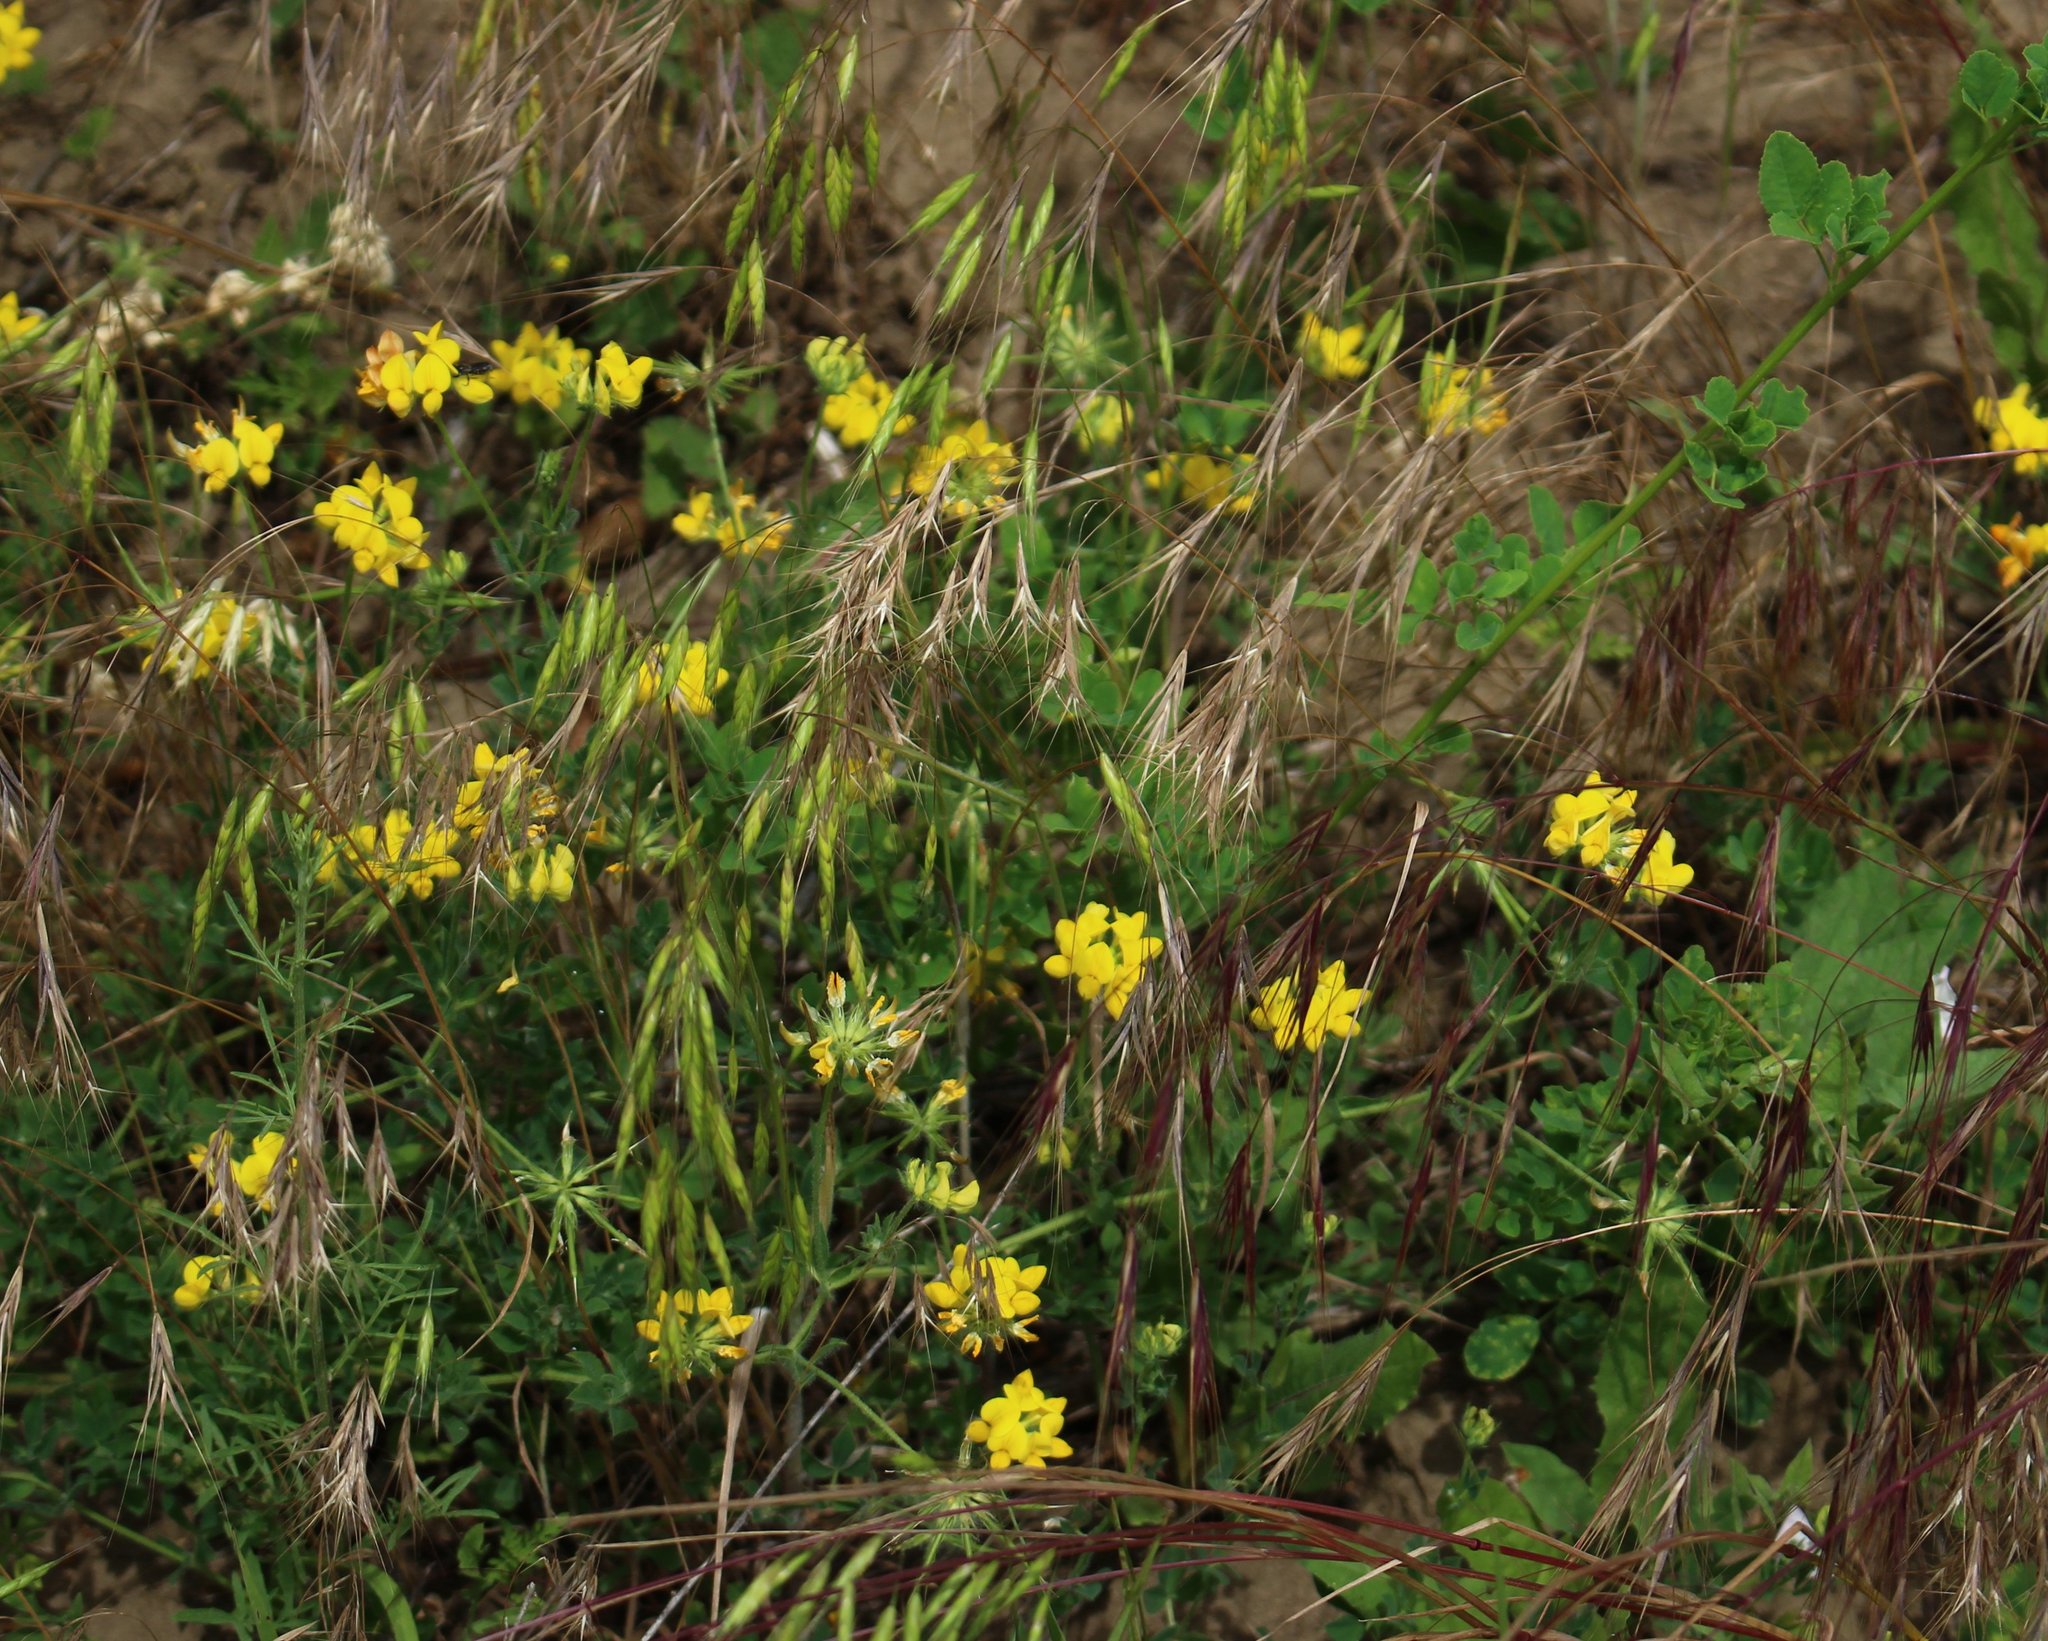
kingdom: Plantae
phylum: Tracheophyta
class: Magnoliopsida
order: Fabales
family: Fabaceae
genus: Lotus
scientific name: Lotus corniculatus
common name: Common bird's-foot-trefoil
